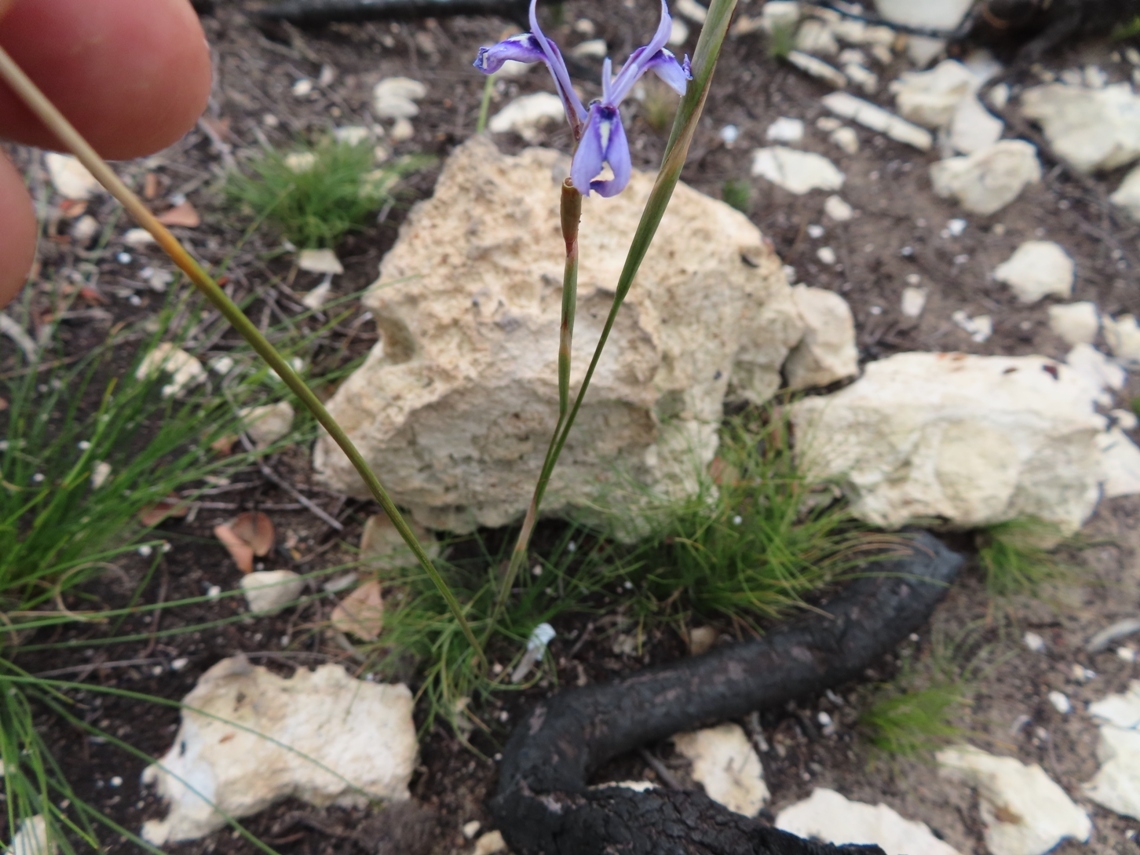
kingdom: Plantae
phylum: Tracheophyta
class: Liliopsida
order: Asparagales
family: Iridaceae
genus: Moraea
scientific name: Moraea tripetala
